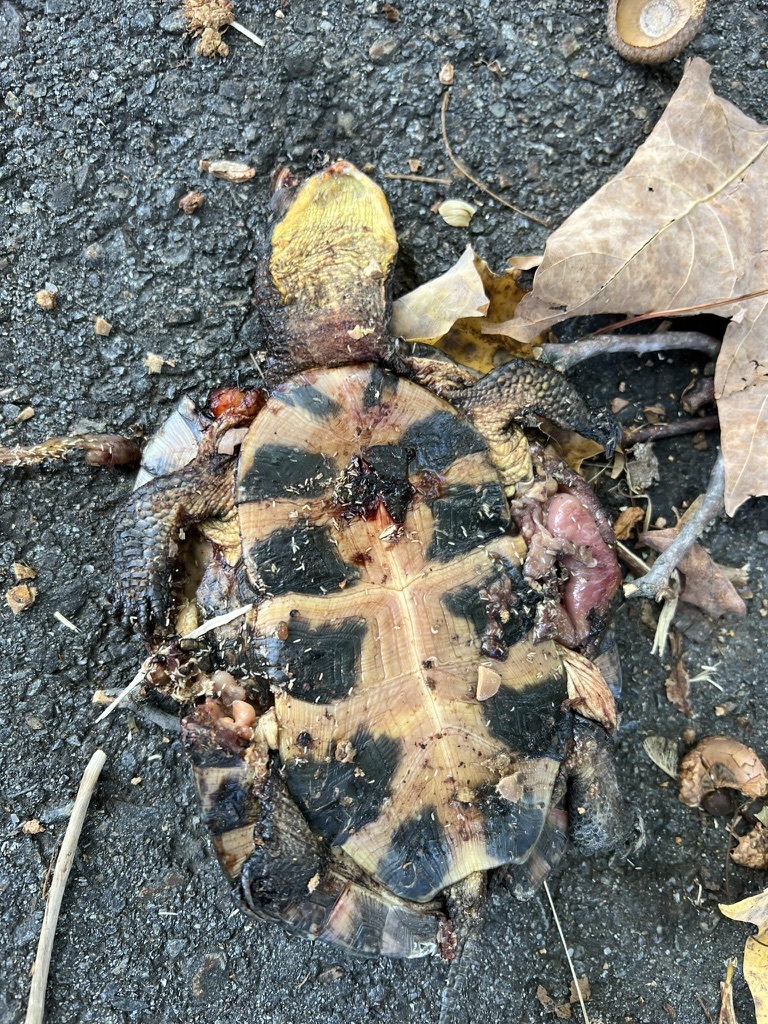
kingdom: Animalia
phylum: Chordata
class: Testudines
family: Emydidae
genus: Emys
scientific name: Emys blandingii
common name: Blanding's turtle
